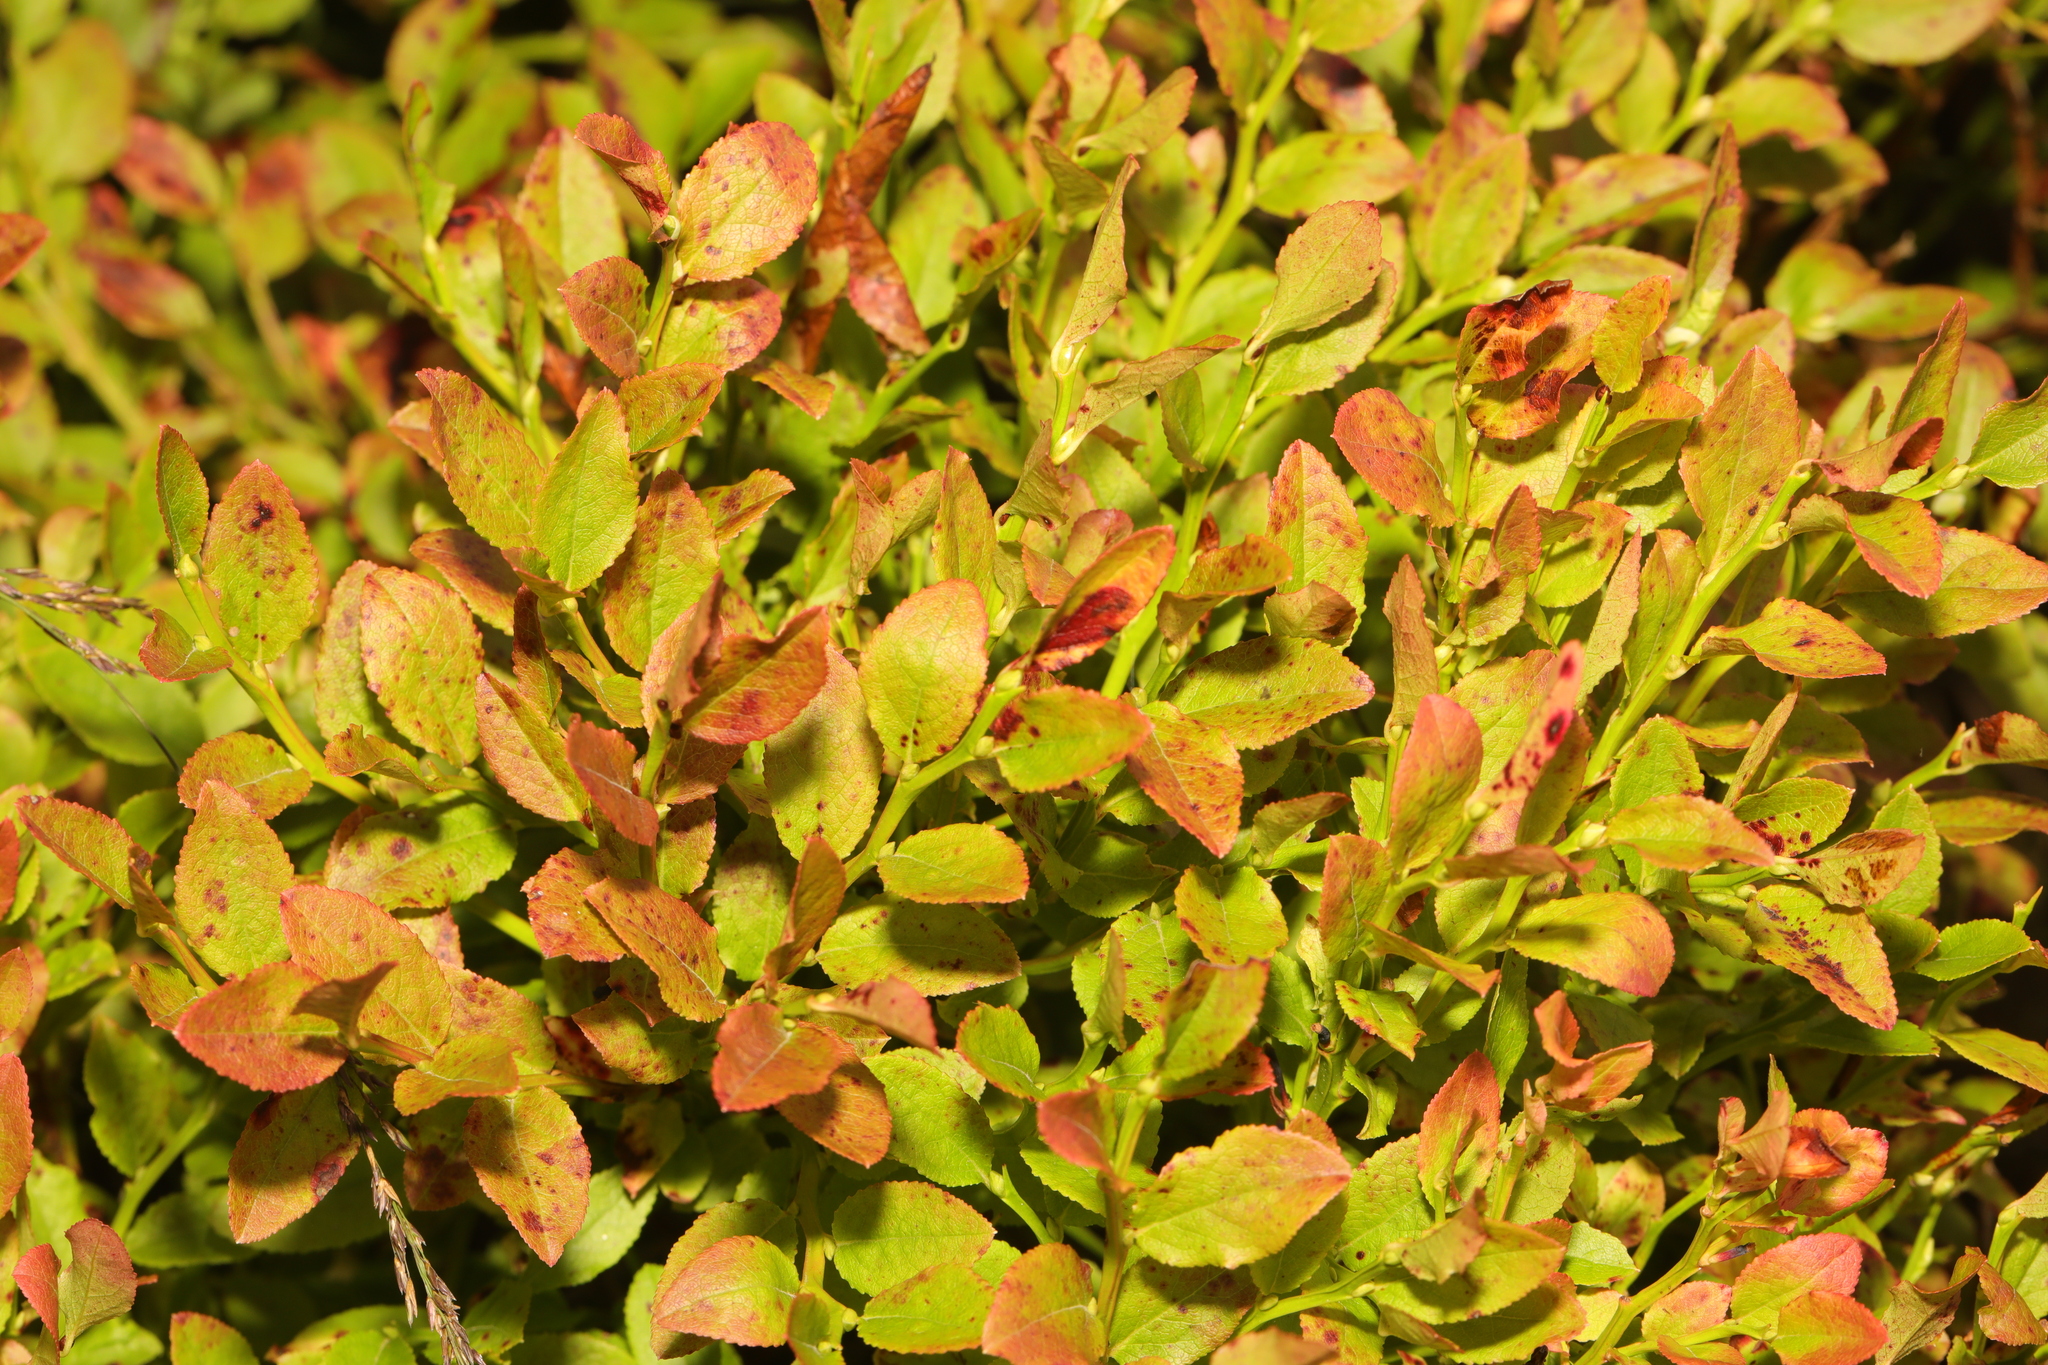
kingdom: Plantae
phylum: Tracheophyta
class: Magnoliopsida
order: Ericales
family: Ericaceae
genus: Vaccinium
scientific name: Vaccinium myrtillus
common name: Bilberry
